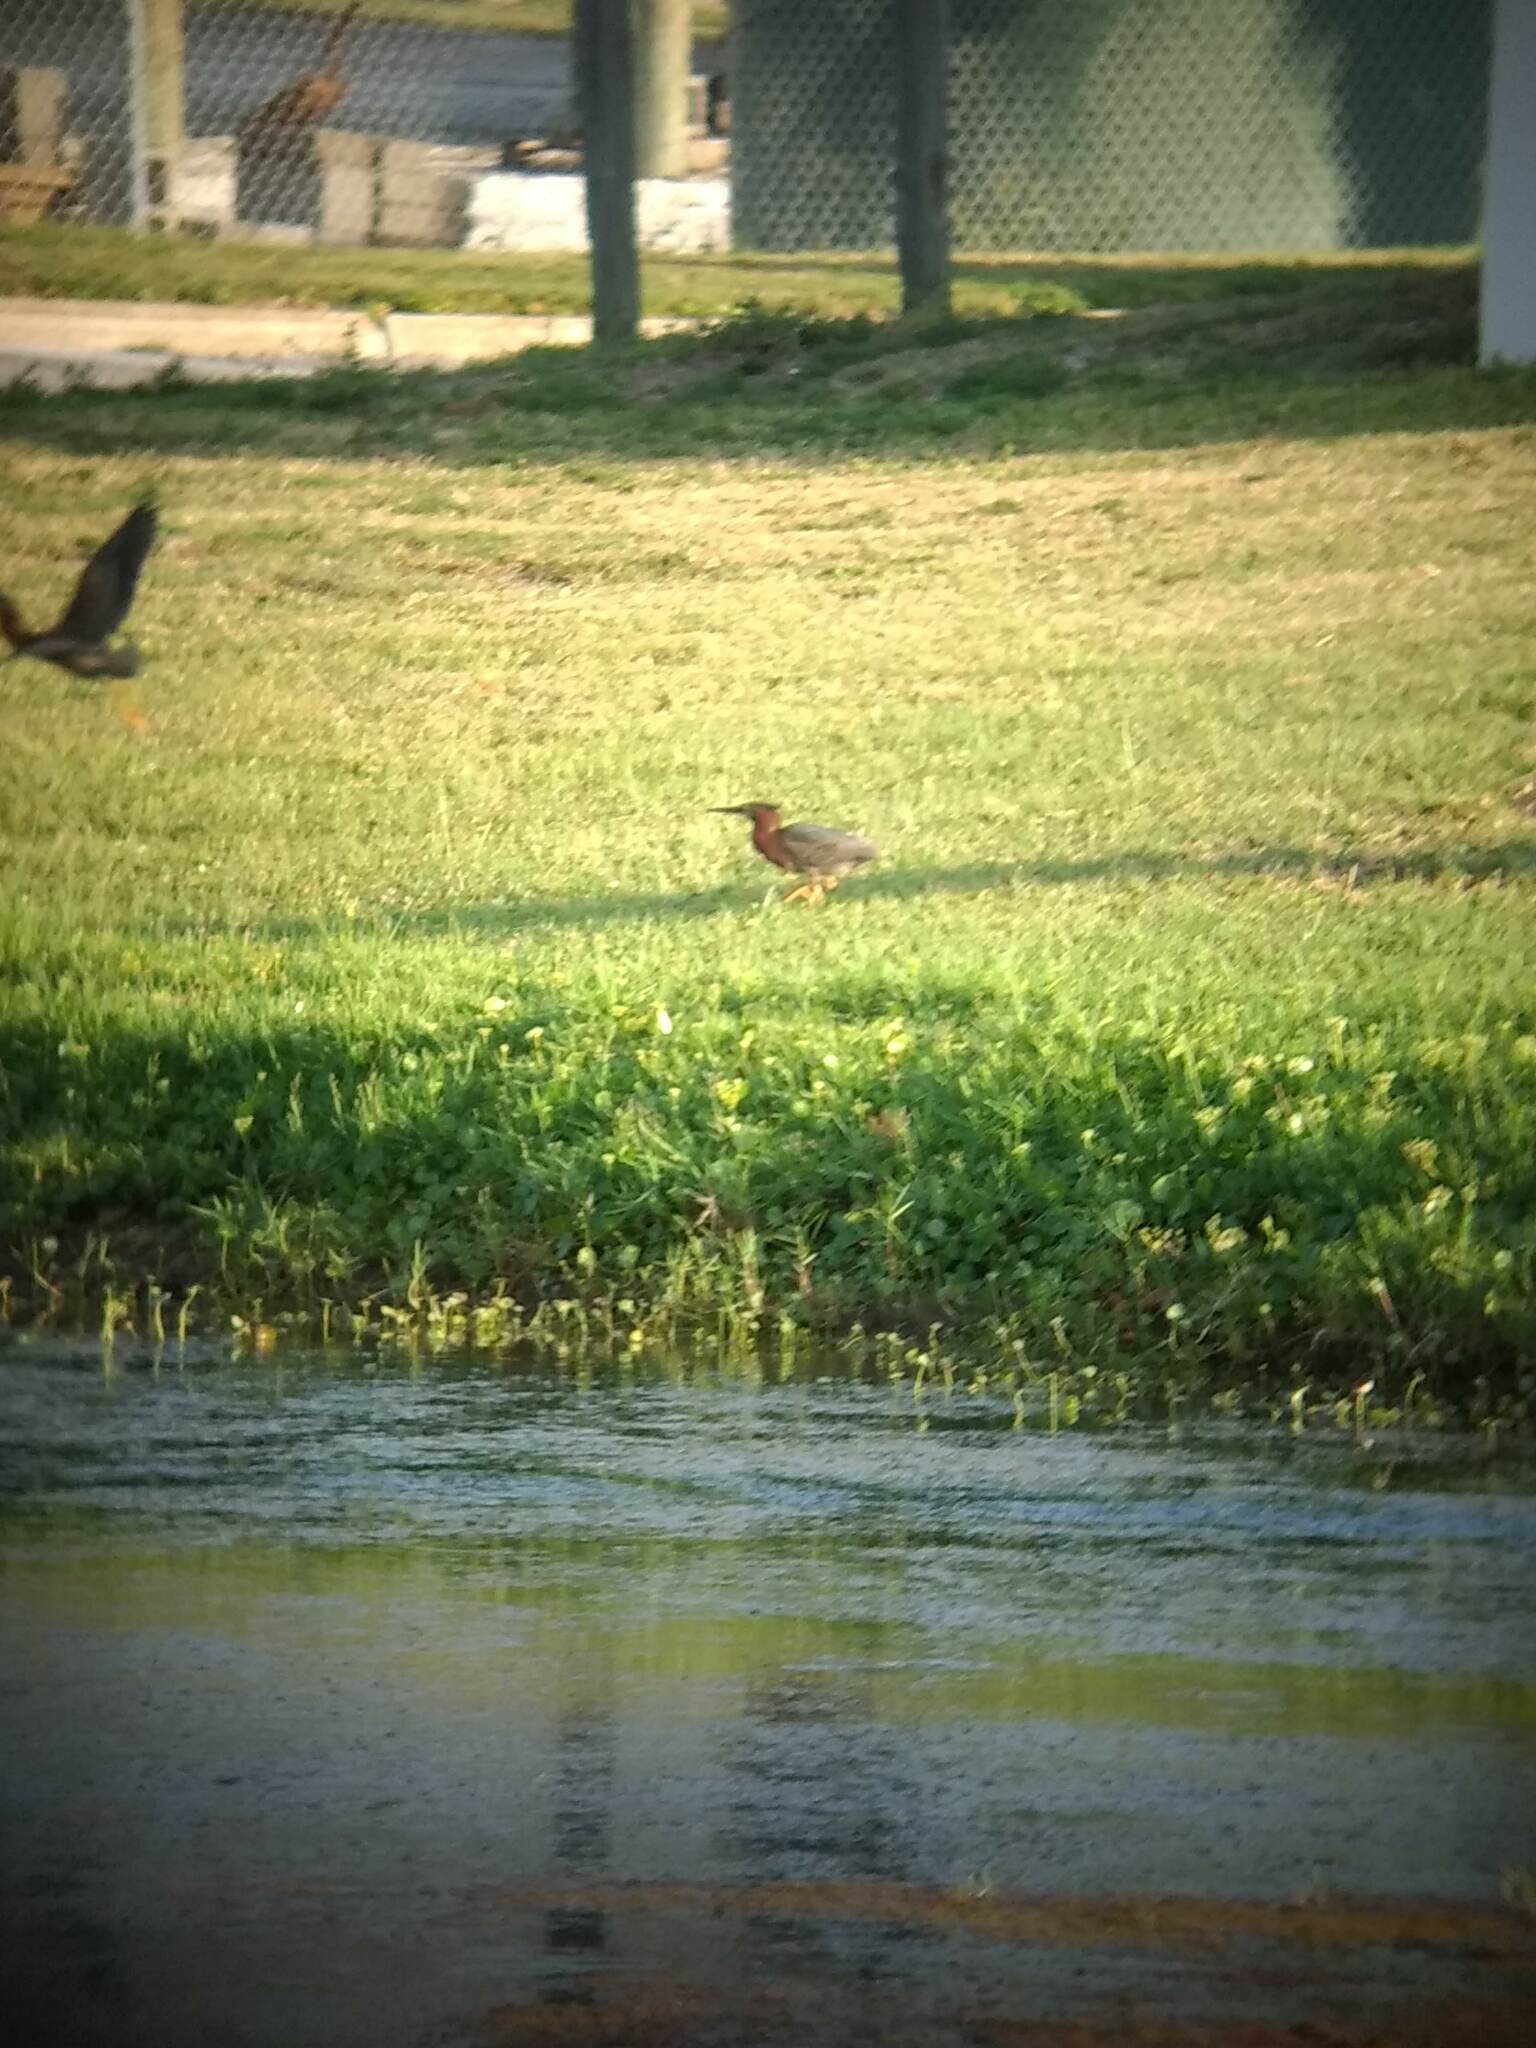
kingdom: Animalia
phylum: Chordata
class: Aves
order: Pelecaniformes
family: Ardeidae
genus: Butorides
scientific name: Butorides virescens
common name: Green heron
